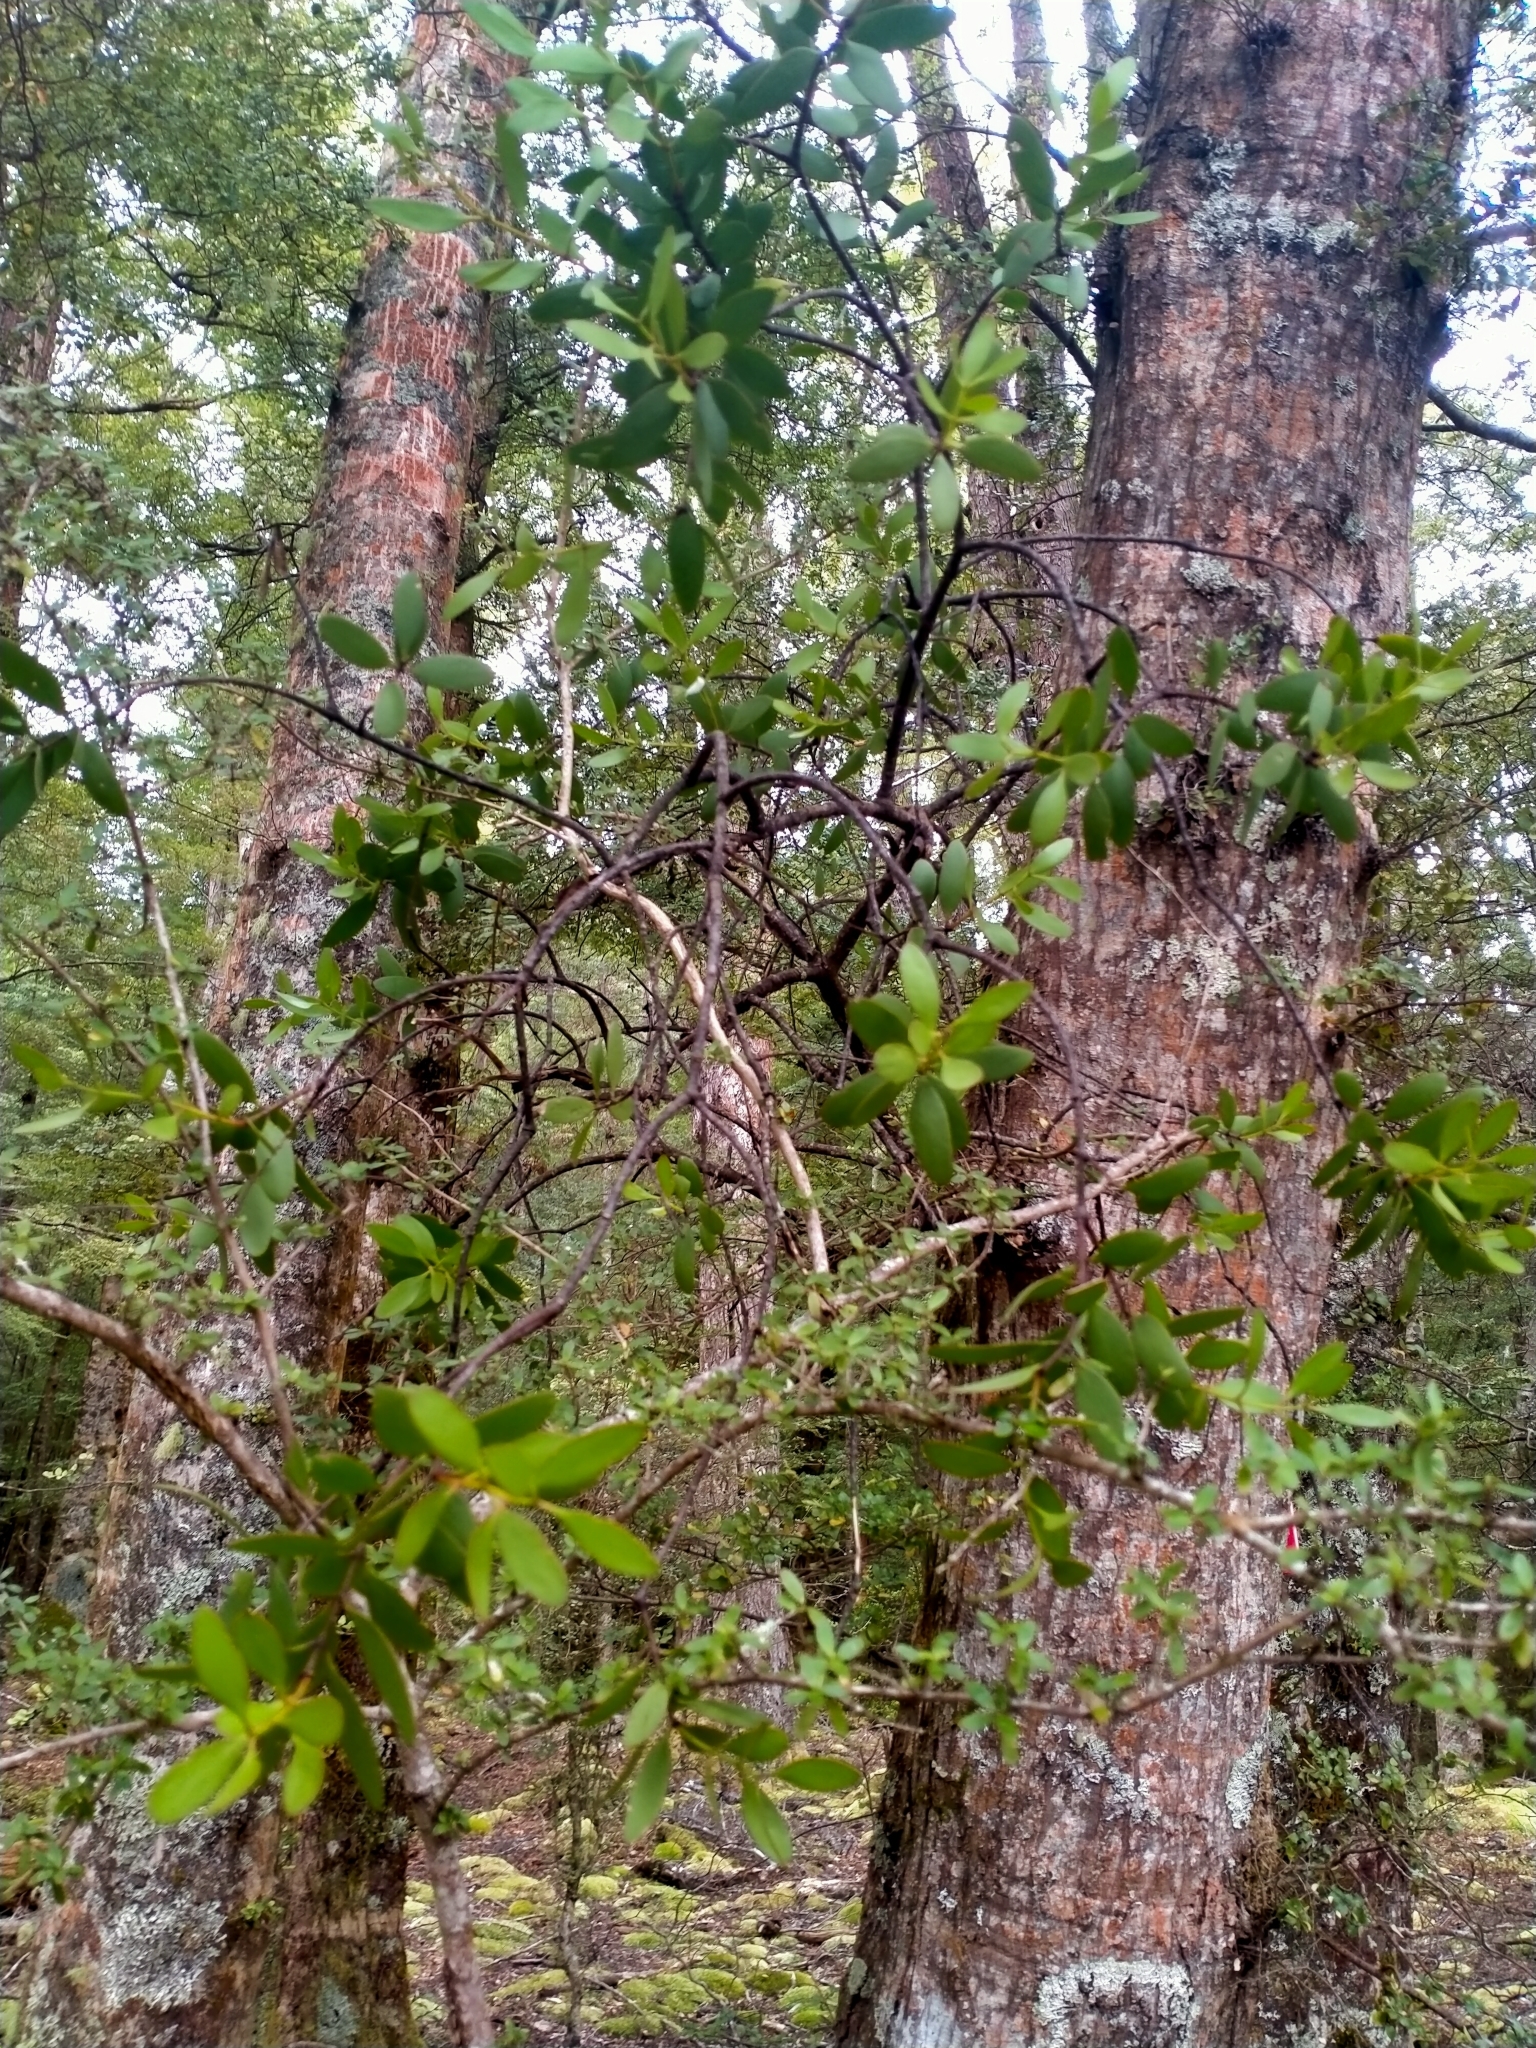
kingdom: Plantae
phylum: Tracheophyta
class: Magnoliopsida
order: Santalales
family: Loranthaceae
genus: Alepis
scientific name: Alepis flavida
